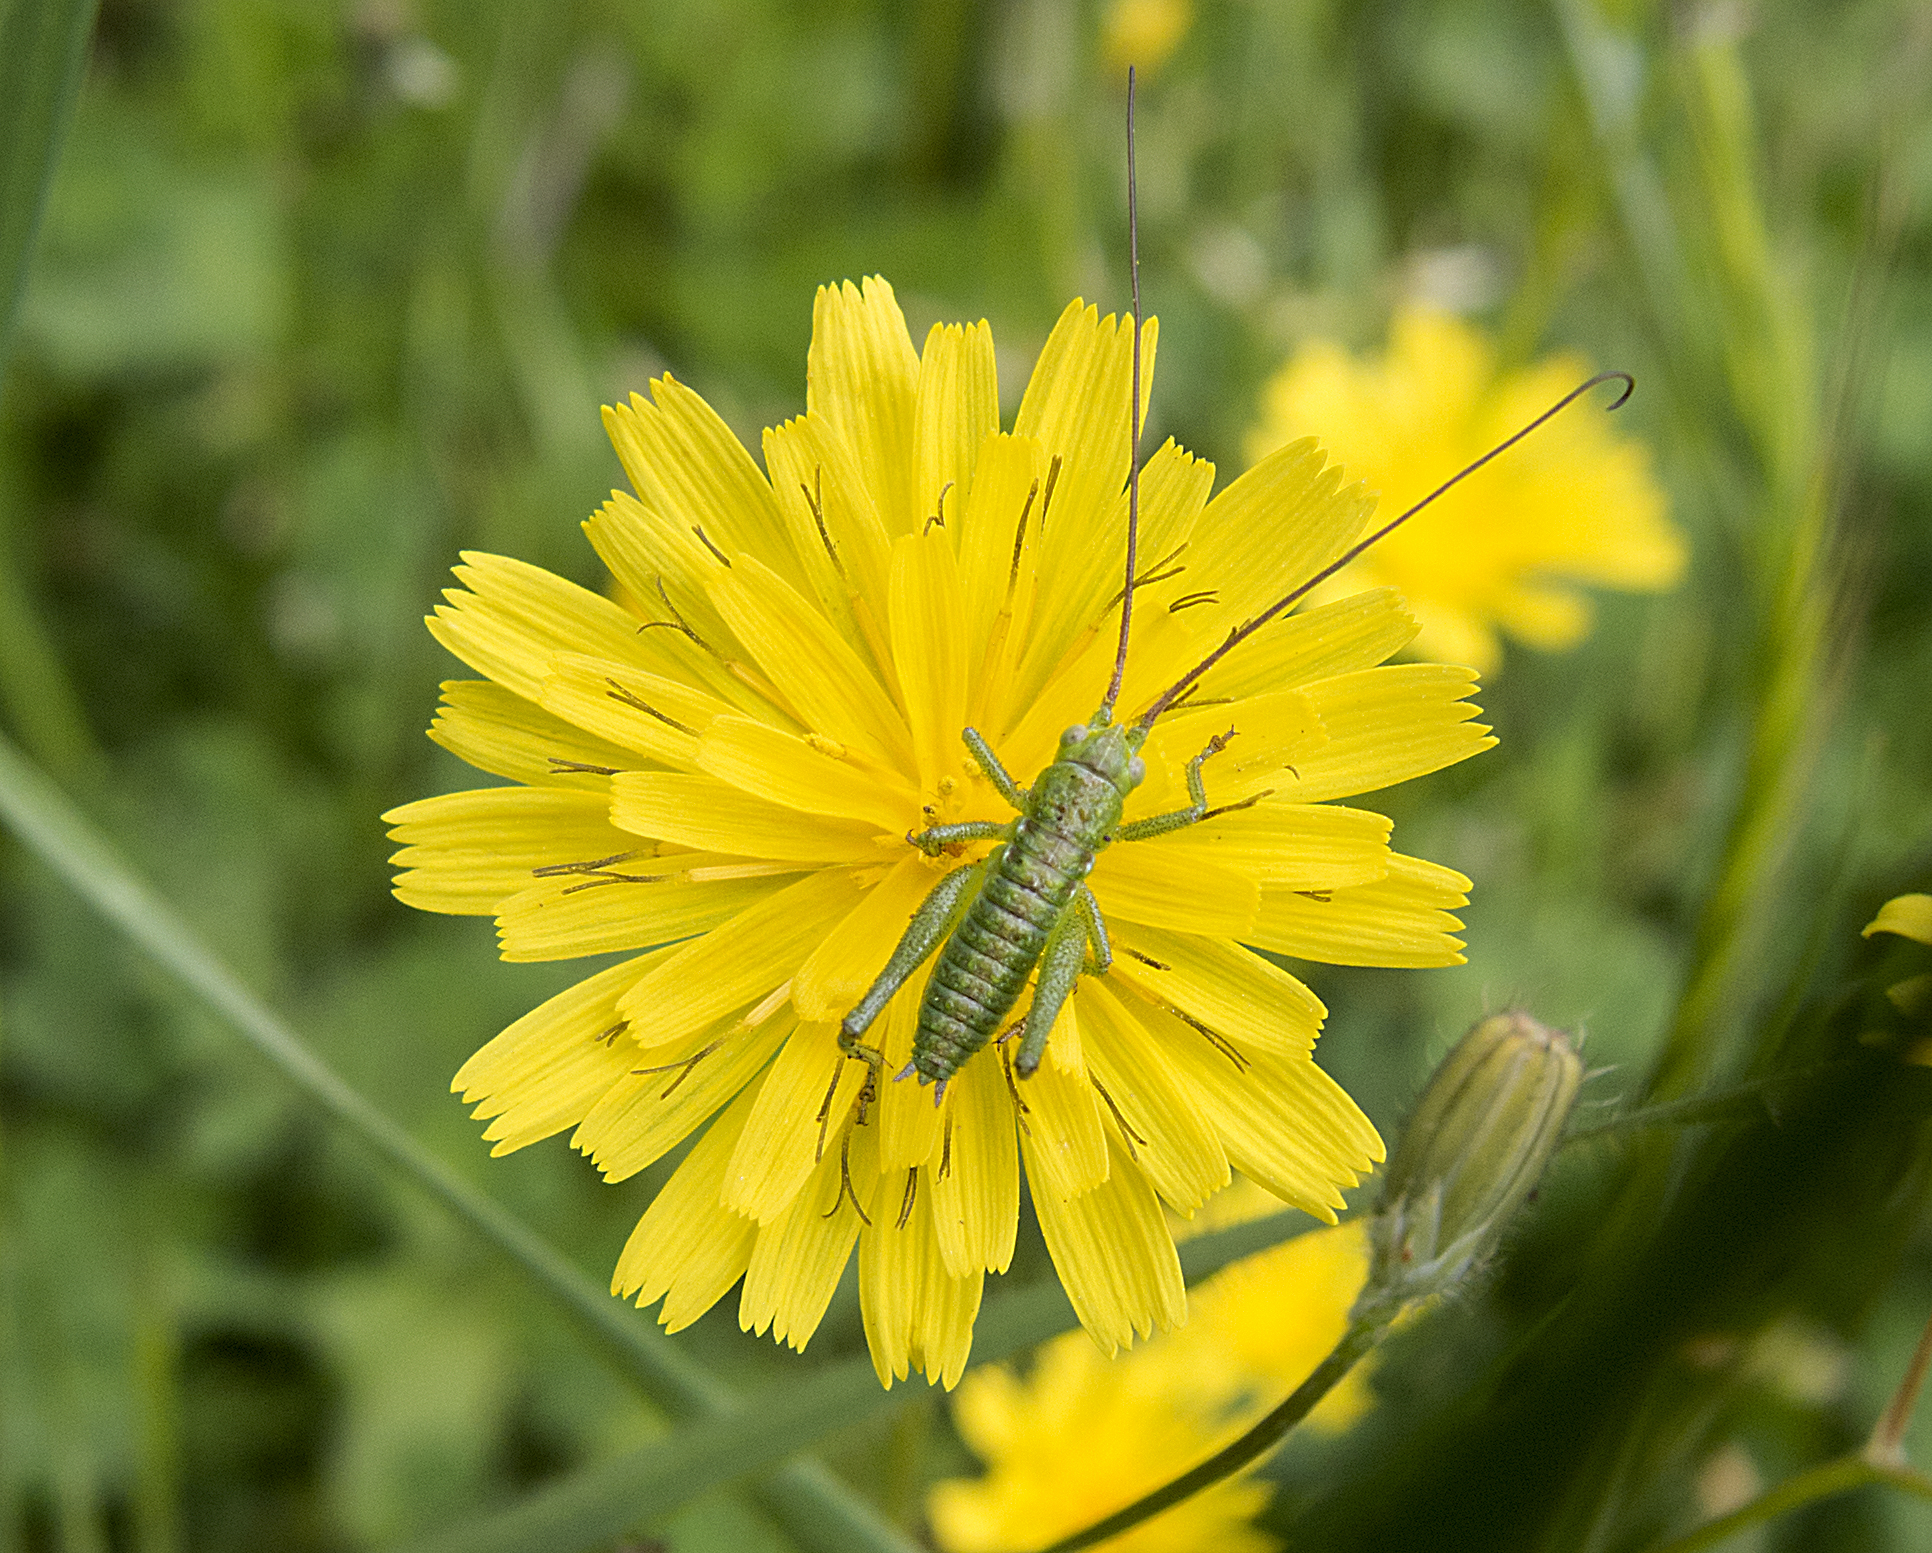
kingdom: Animalia
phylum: Arthropoda
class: Insecta
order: Orthoptera
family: Tettigoniidae
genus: Tettigonia
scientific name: Tettigonia viridissima
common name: Great green bush-cricket
